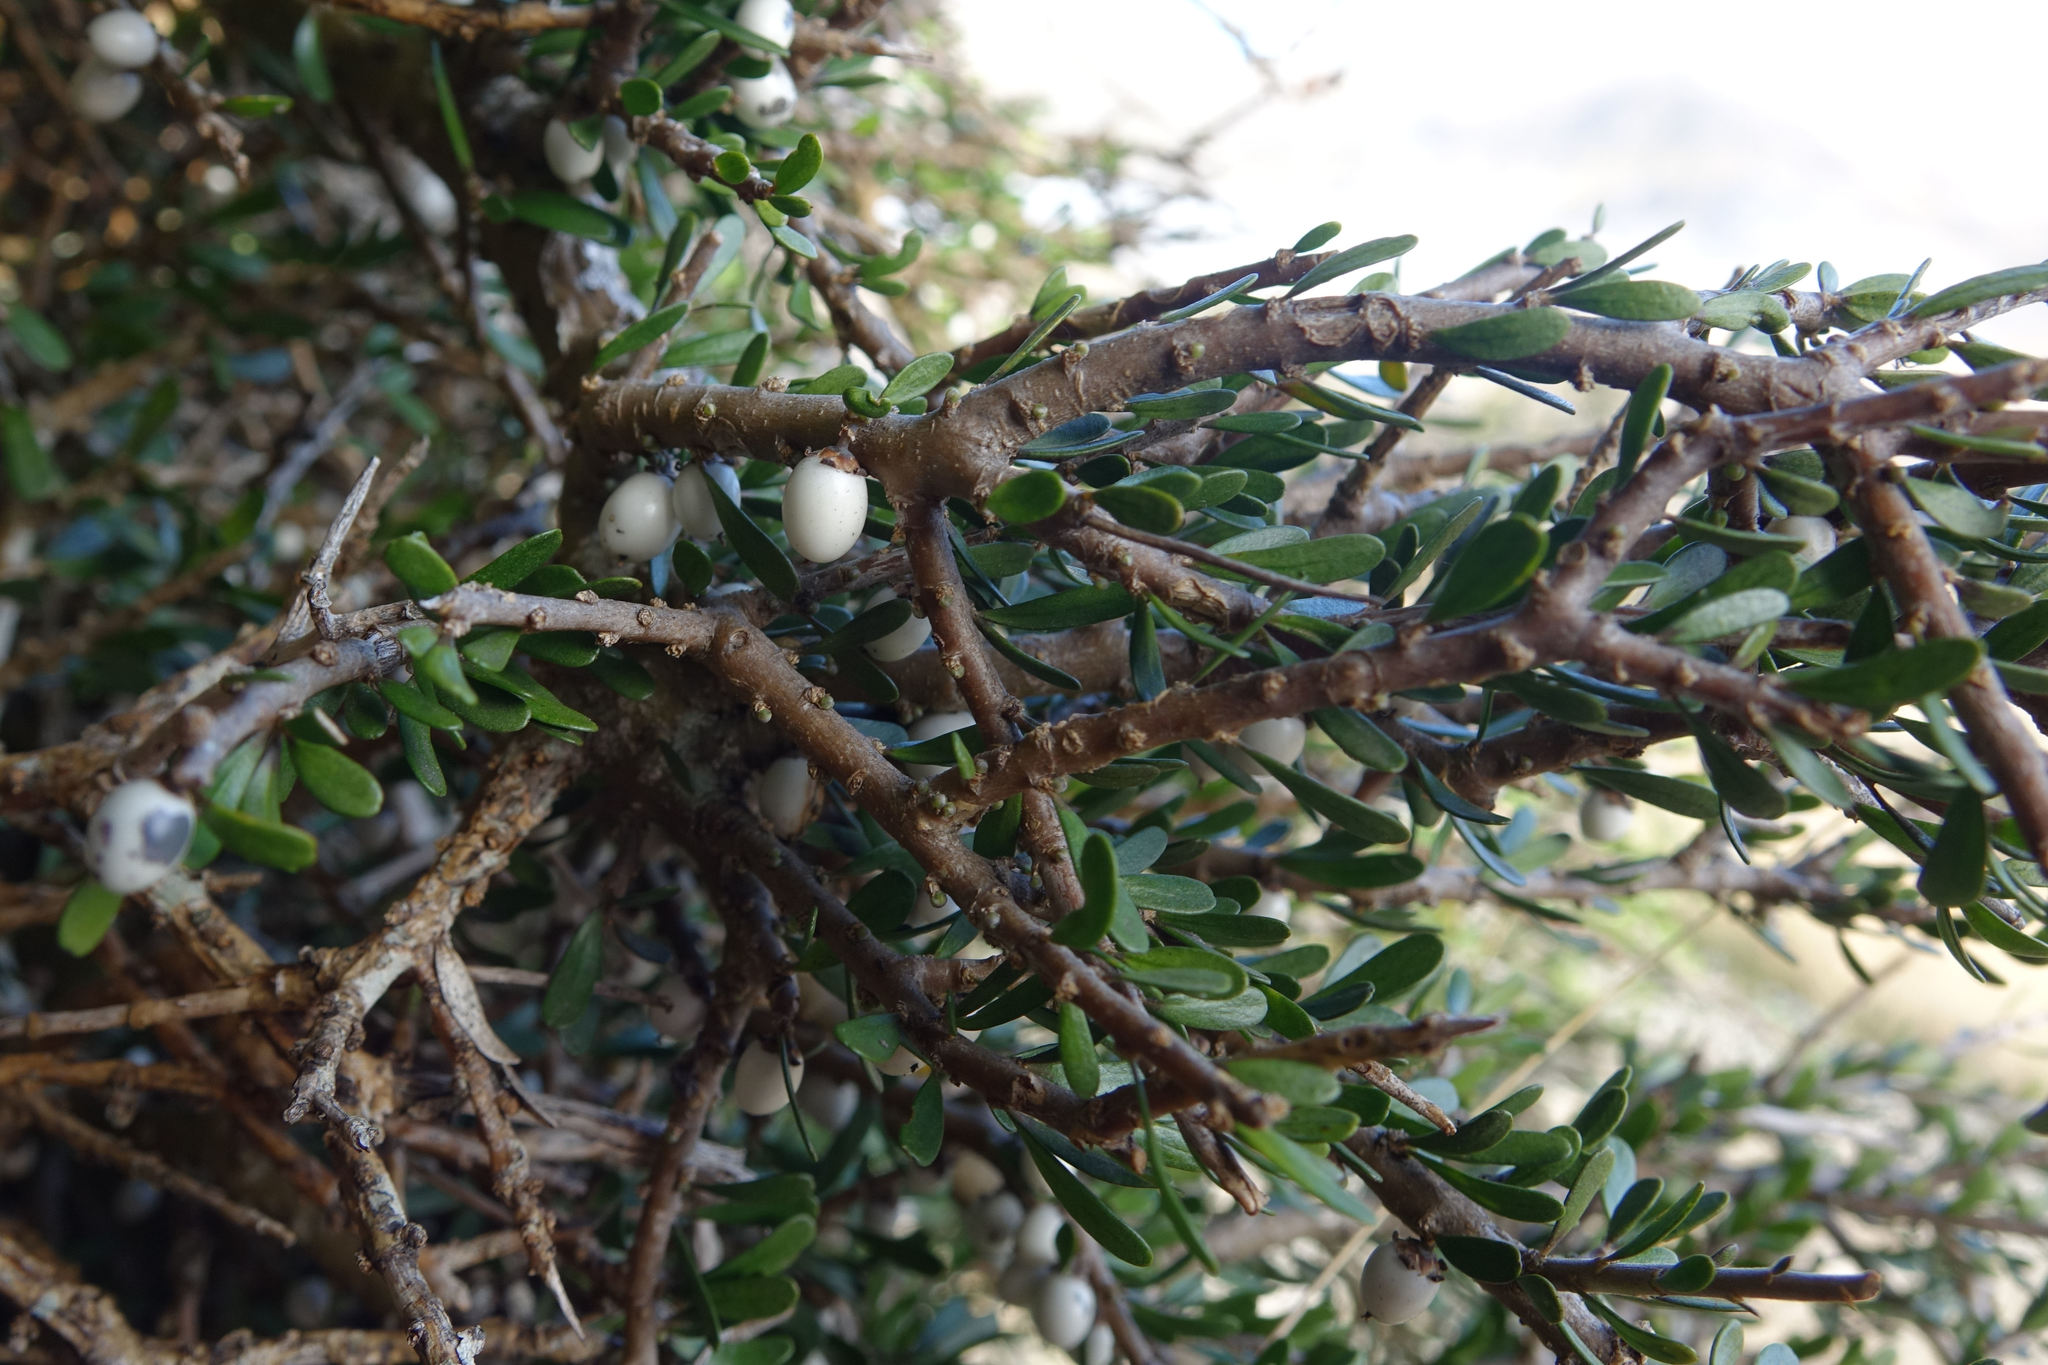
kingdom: Plantae
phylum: Tracheophyta
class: Magnoliopsida
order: Malpighiales
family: Violaceae
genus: Melicytus
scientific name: Melicytus alpinus
